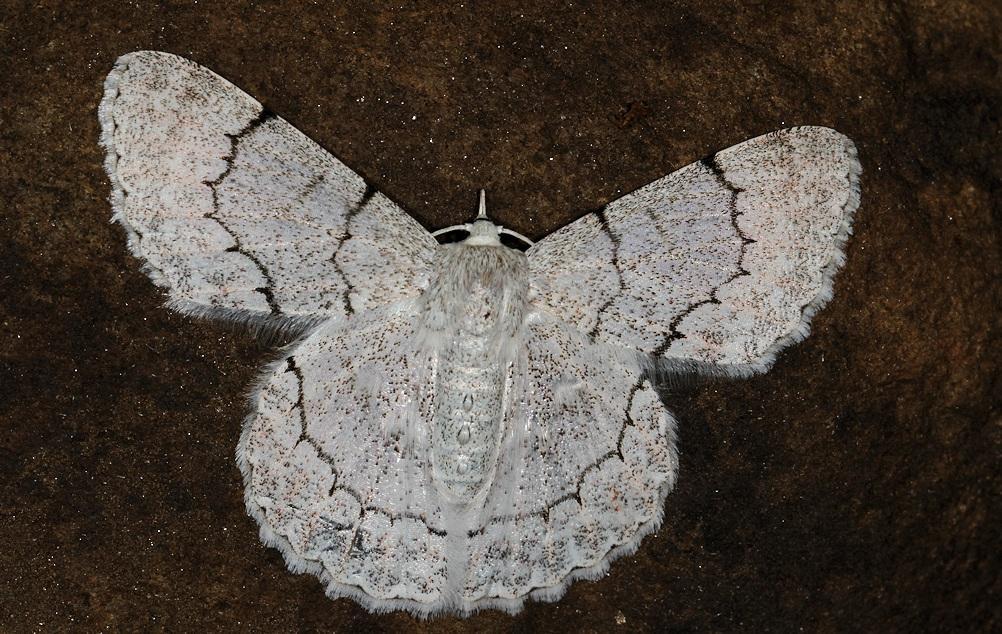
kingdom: Animalia
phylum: Arthropoda
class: Insecta
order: Lepidoptera
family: Geometridae
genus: Pingasa
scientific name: Pingasa abyssiniaria
